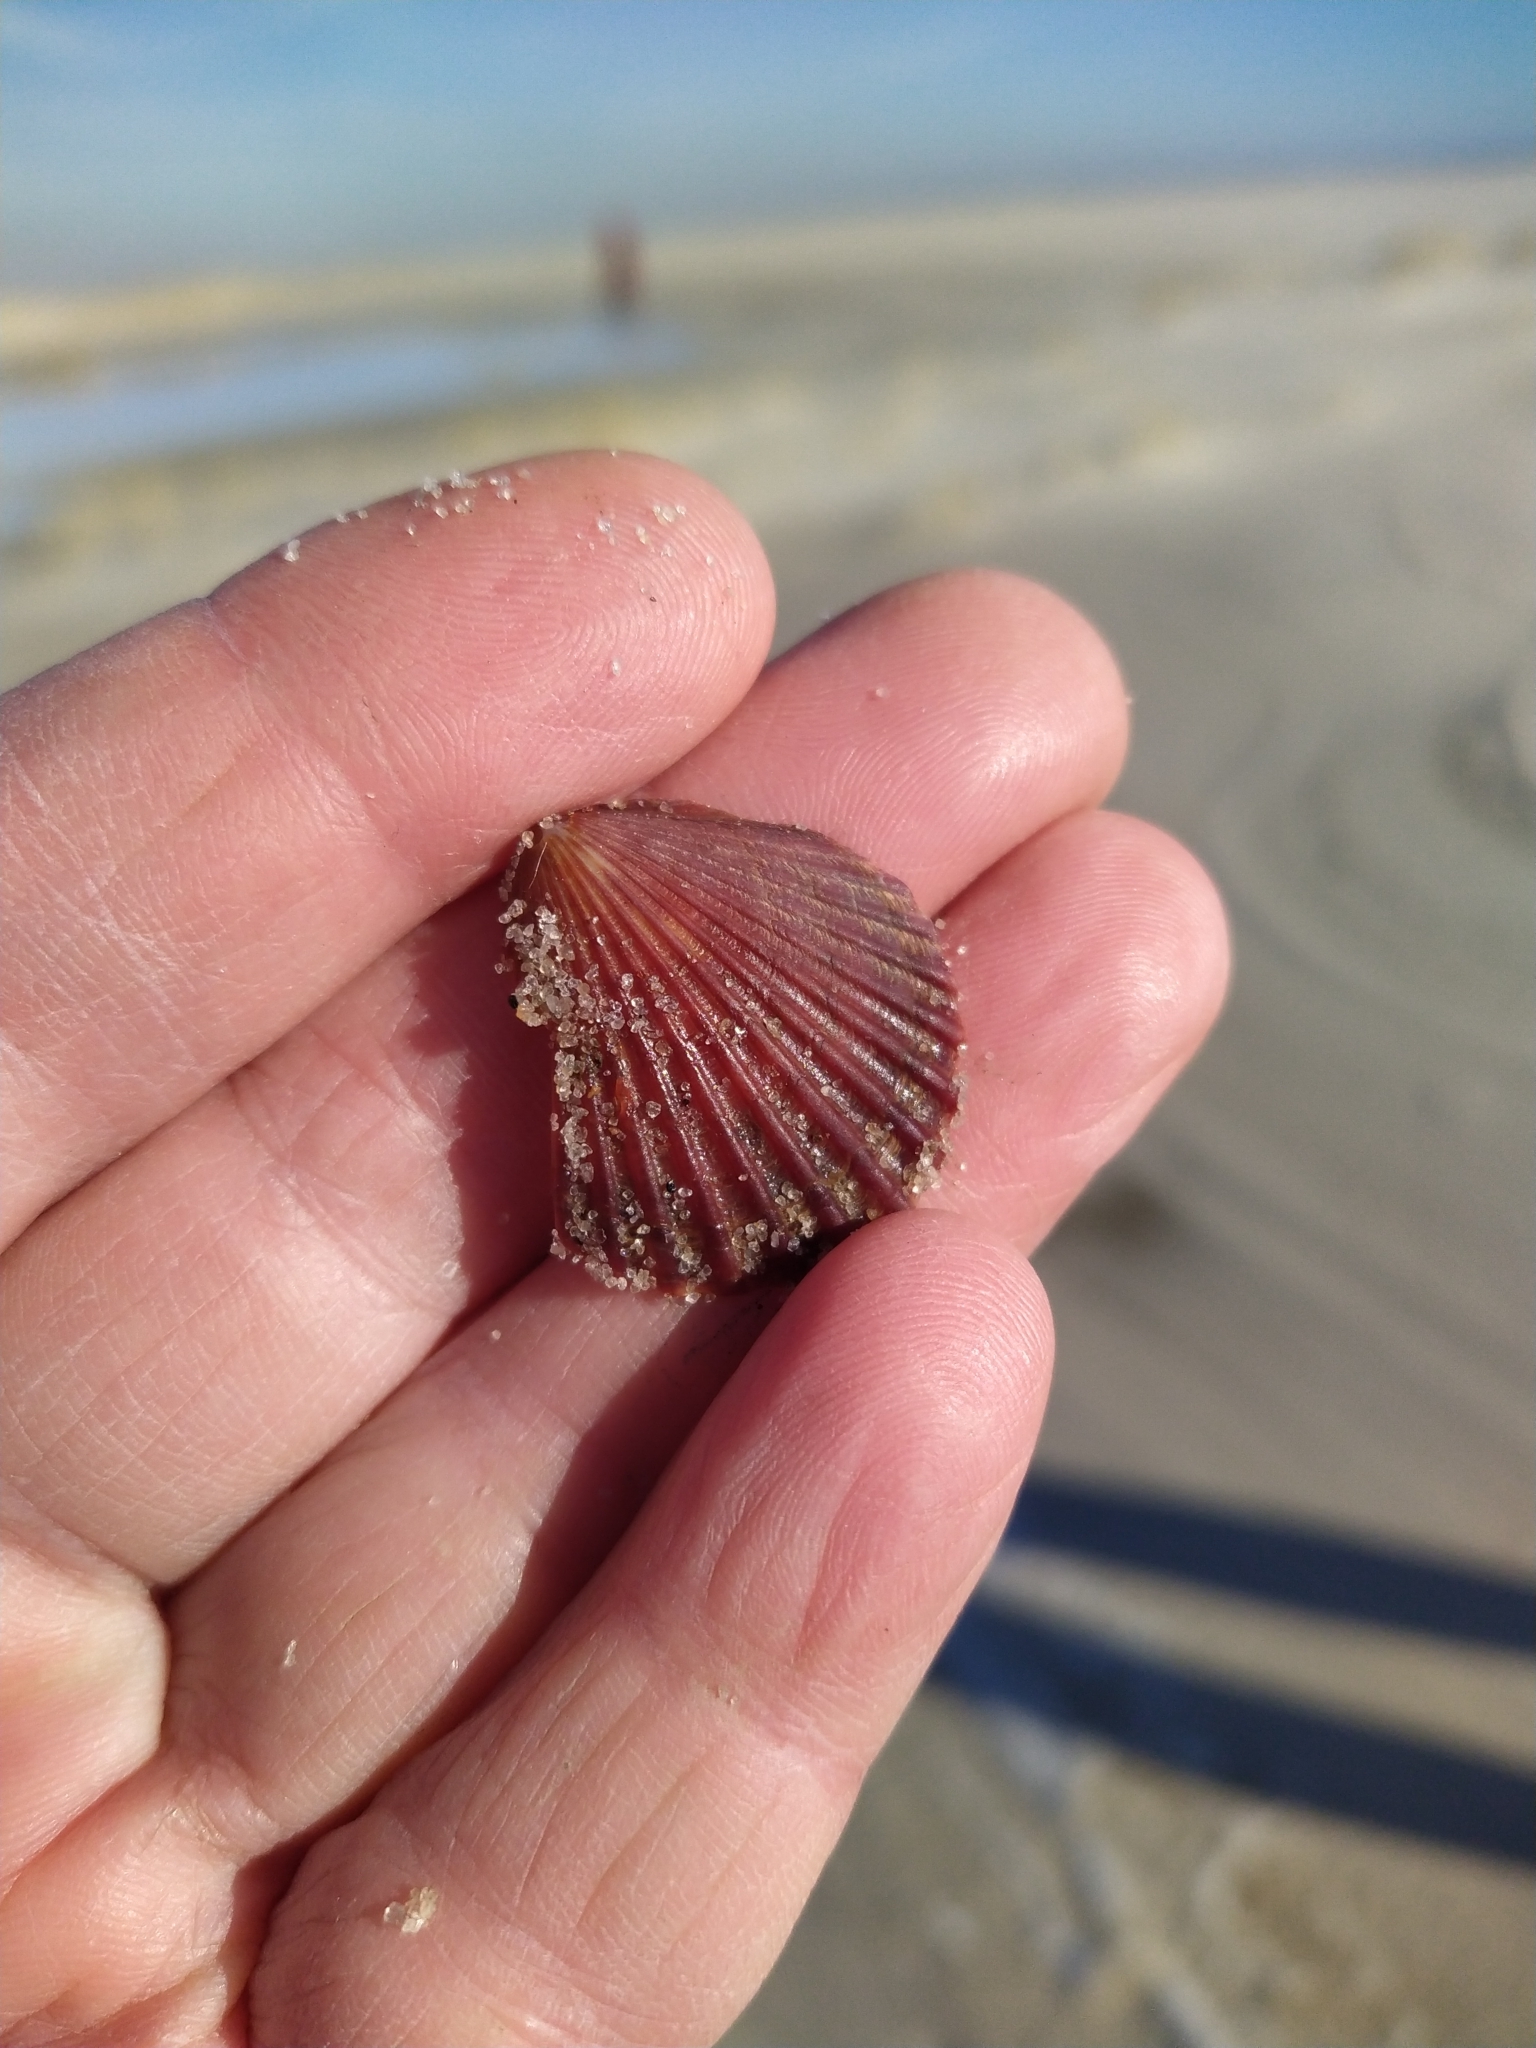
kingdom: Animalia
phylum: Mollusca
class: Bivalvia
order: Pectinida
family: Pectinidae
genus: Argopecten
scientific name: Argopecten irradians
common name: Atlantic bay scallop
